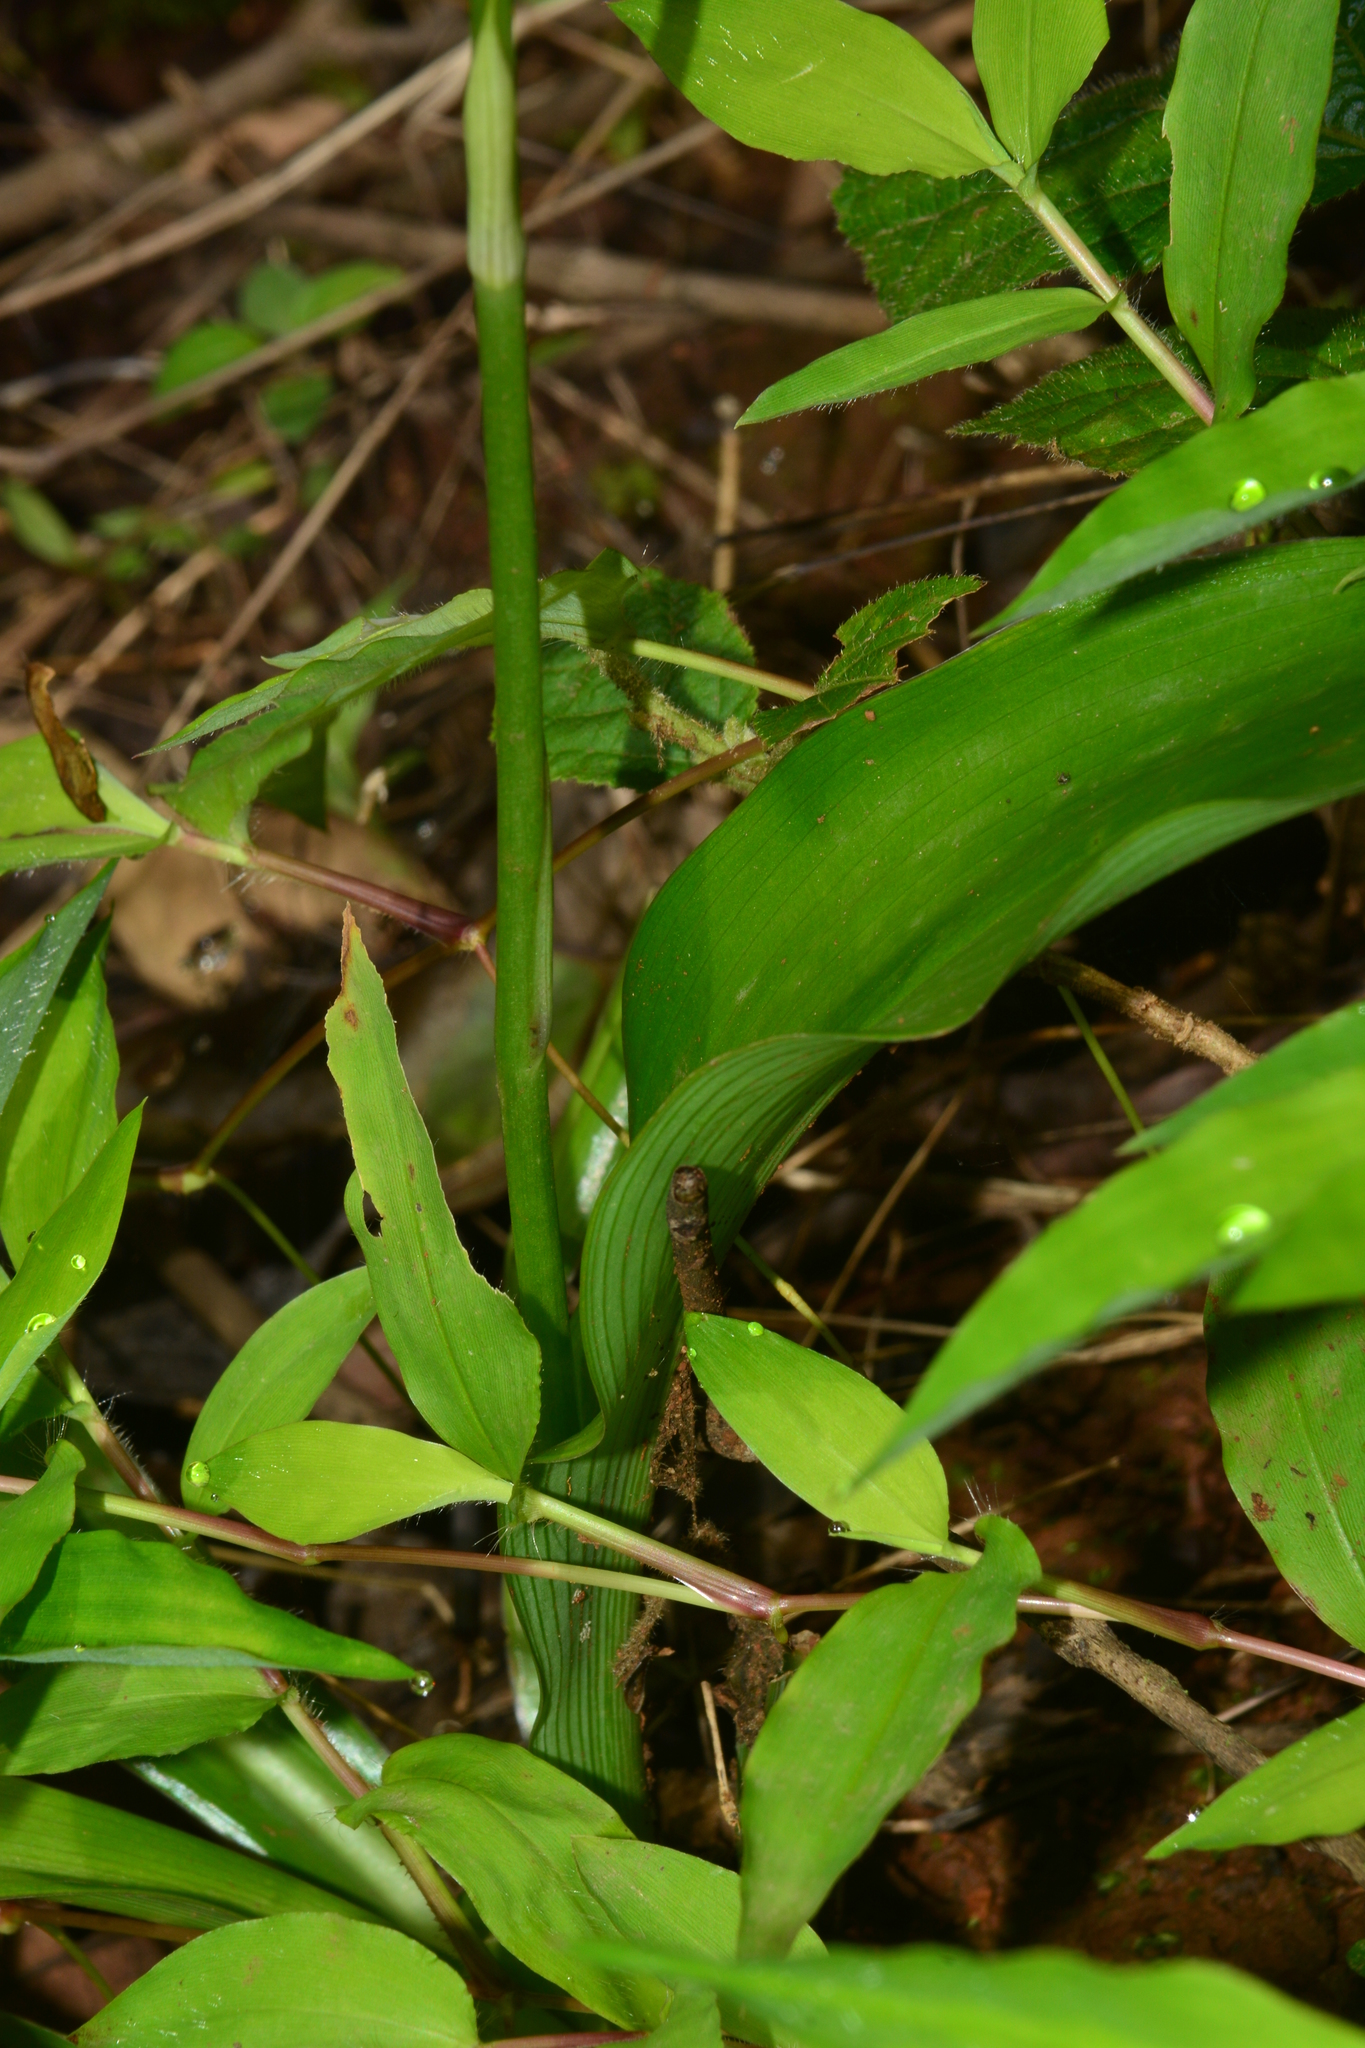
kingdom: Plantae
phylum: Tracheophyta
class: Liliopsida
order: Asparagales
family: Asparagaceae
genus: Chlorophytum
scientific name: Chlorophytum nimmonii
